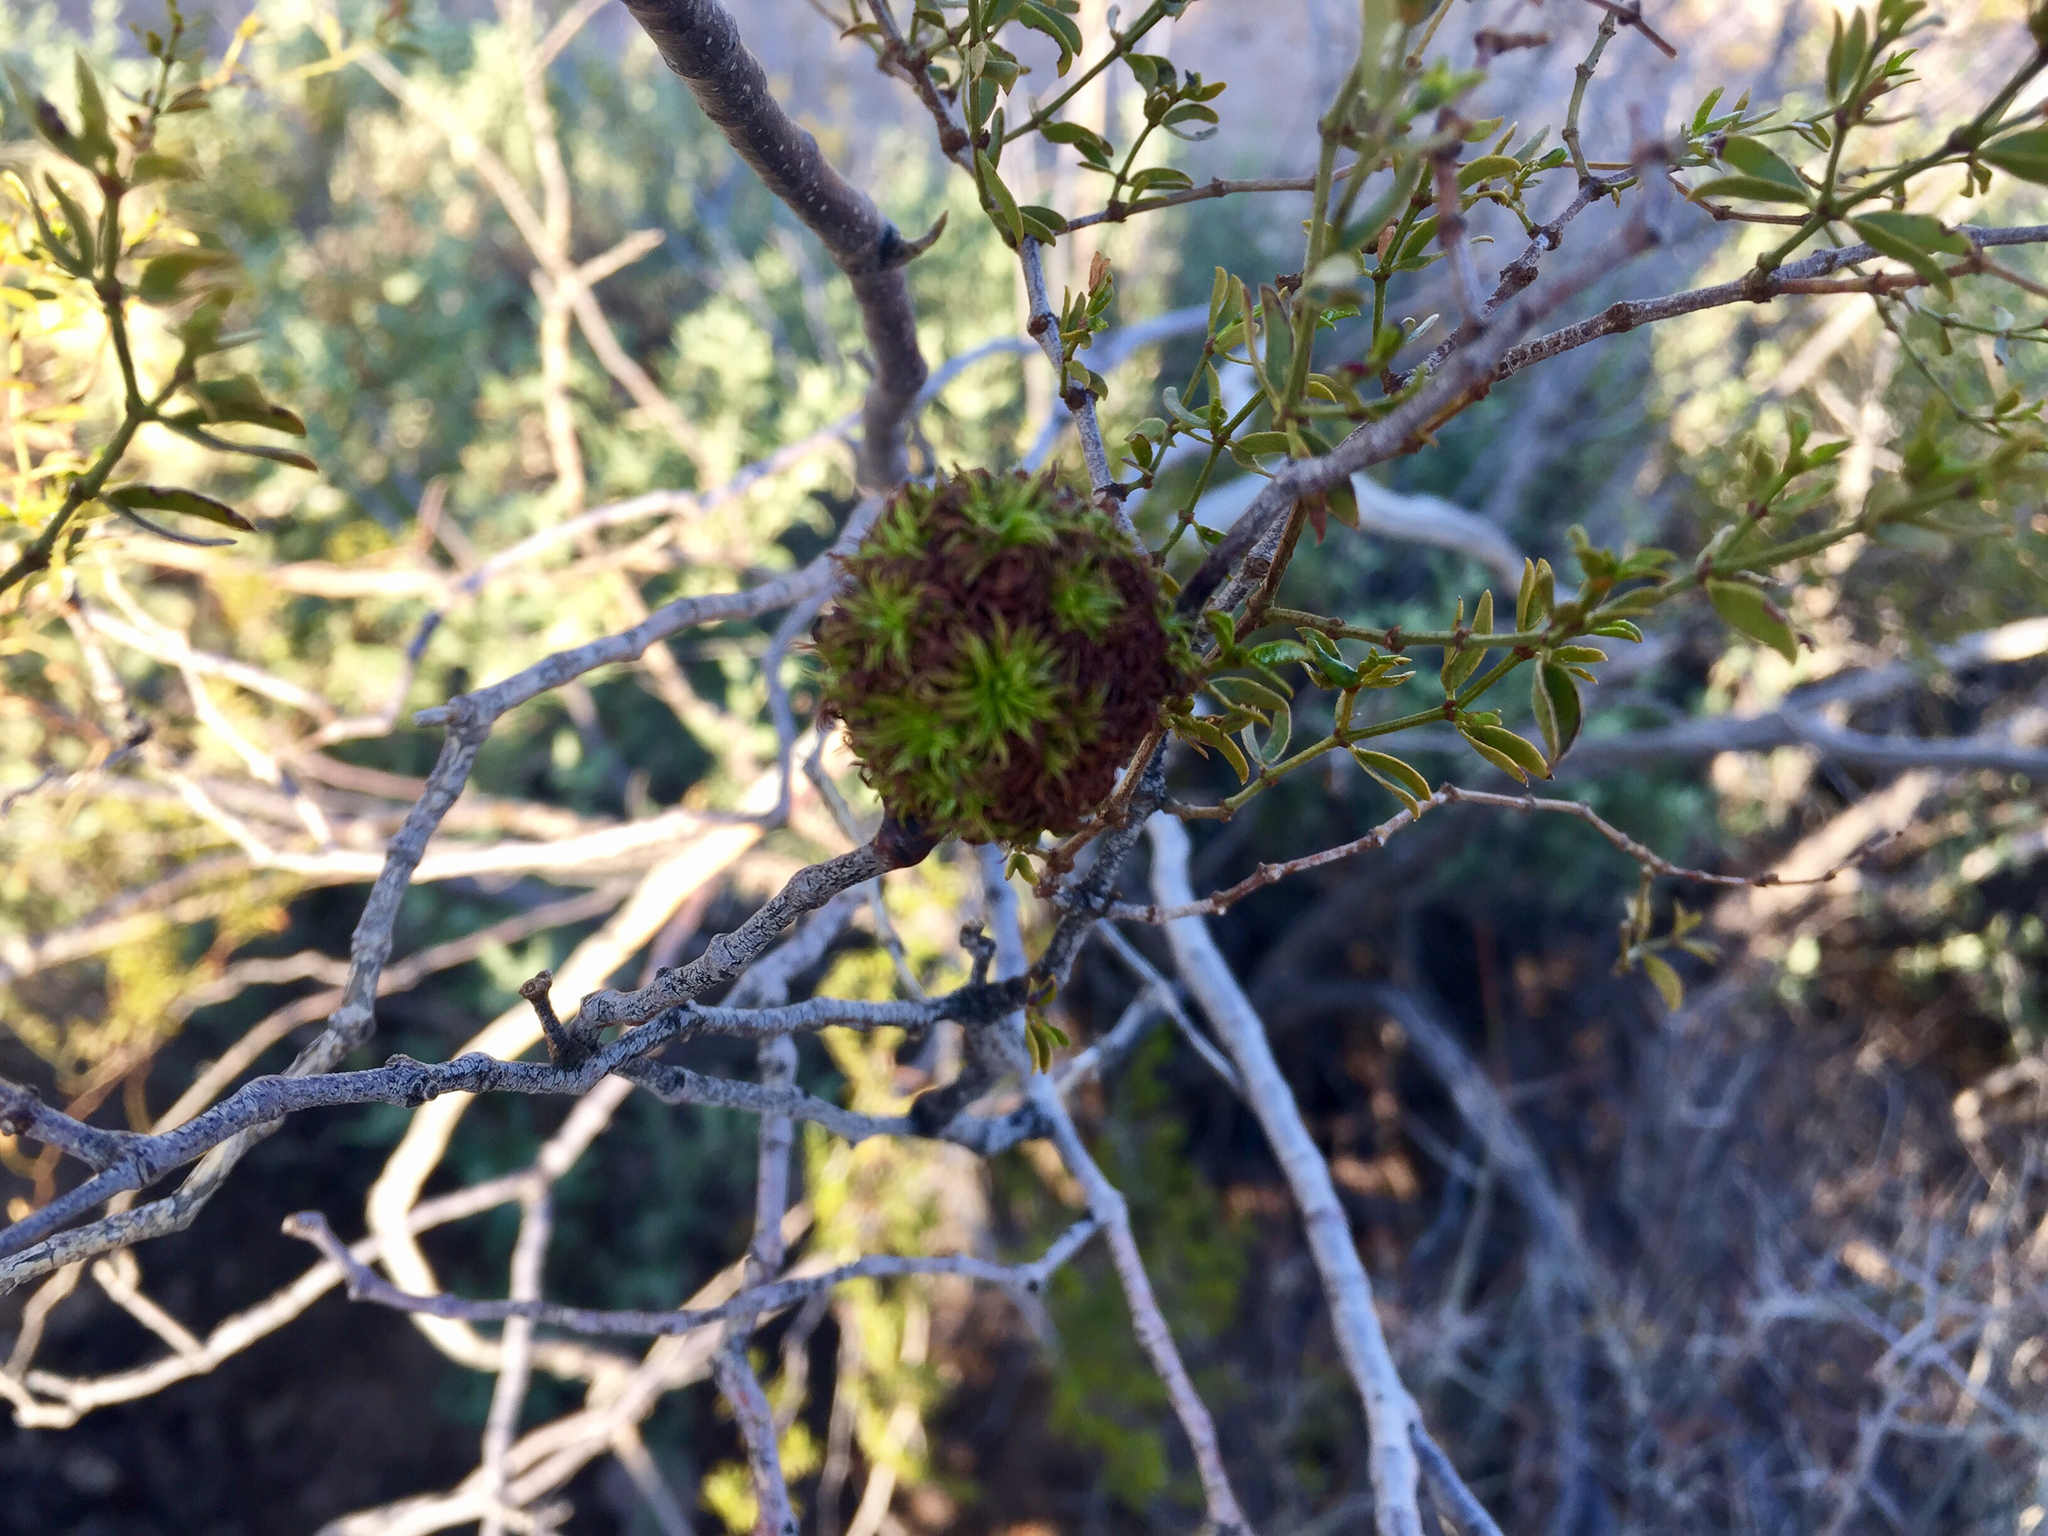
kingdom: Animalia
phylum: Arthropoda
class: Insecta
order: Diptera
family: Cecidomyiidae
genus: Asphondylia
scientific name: Asphondylia auripila
